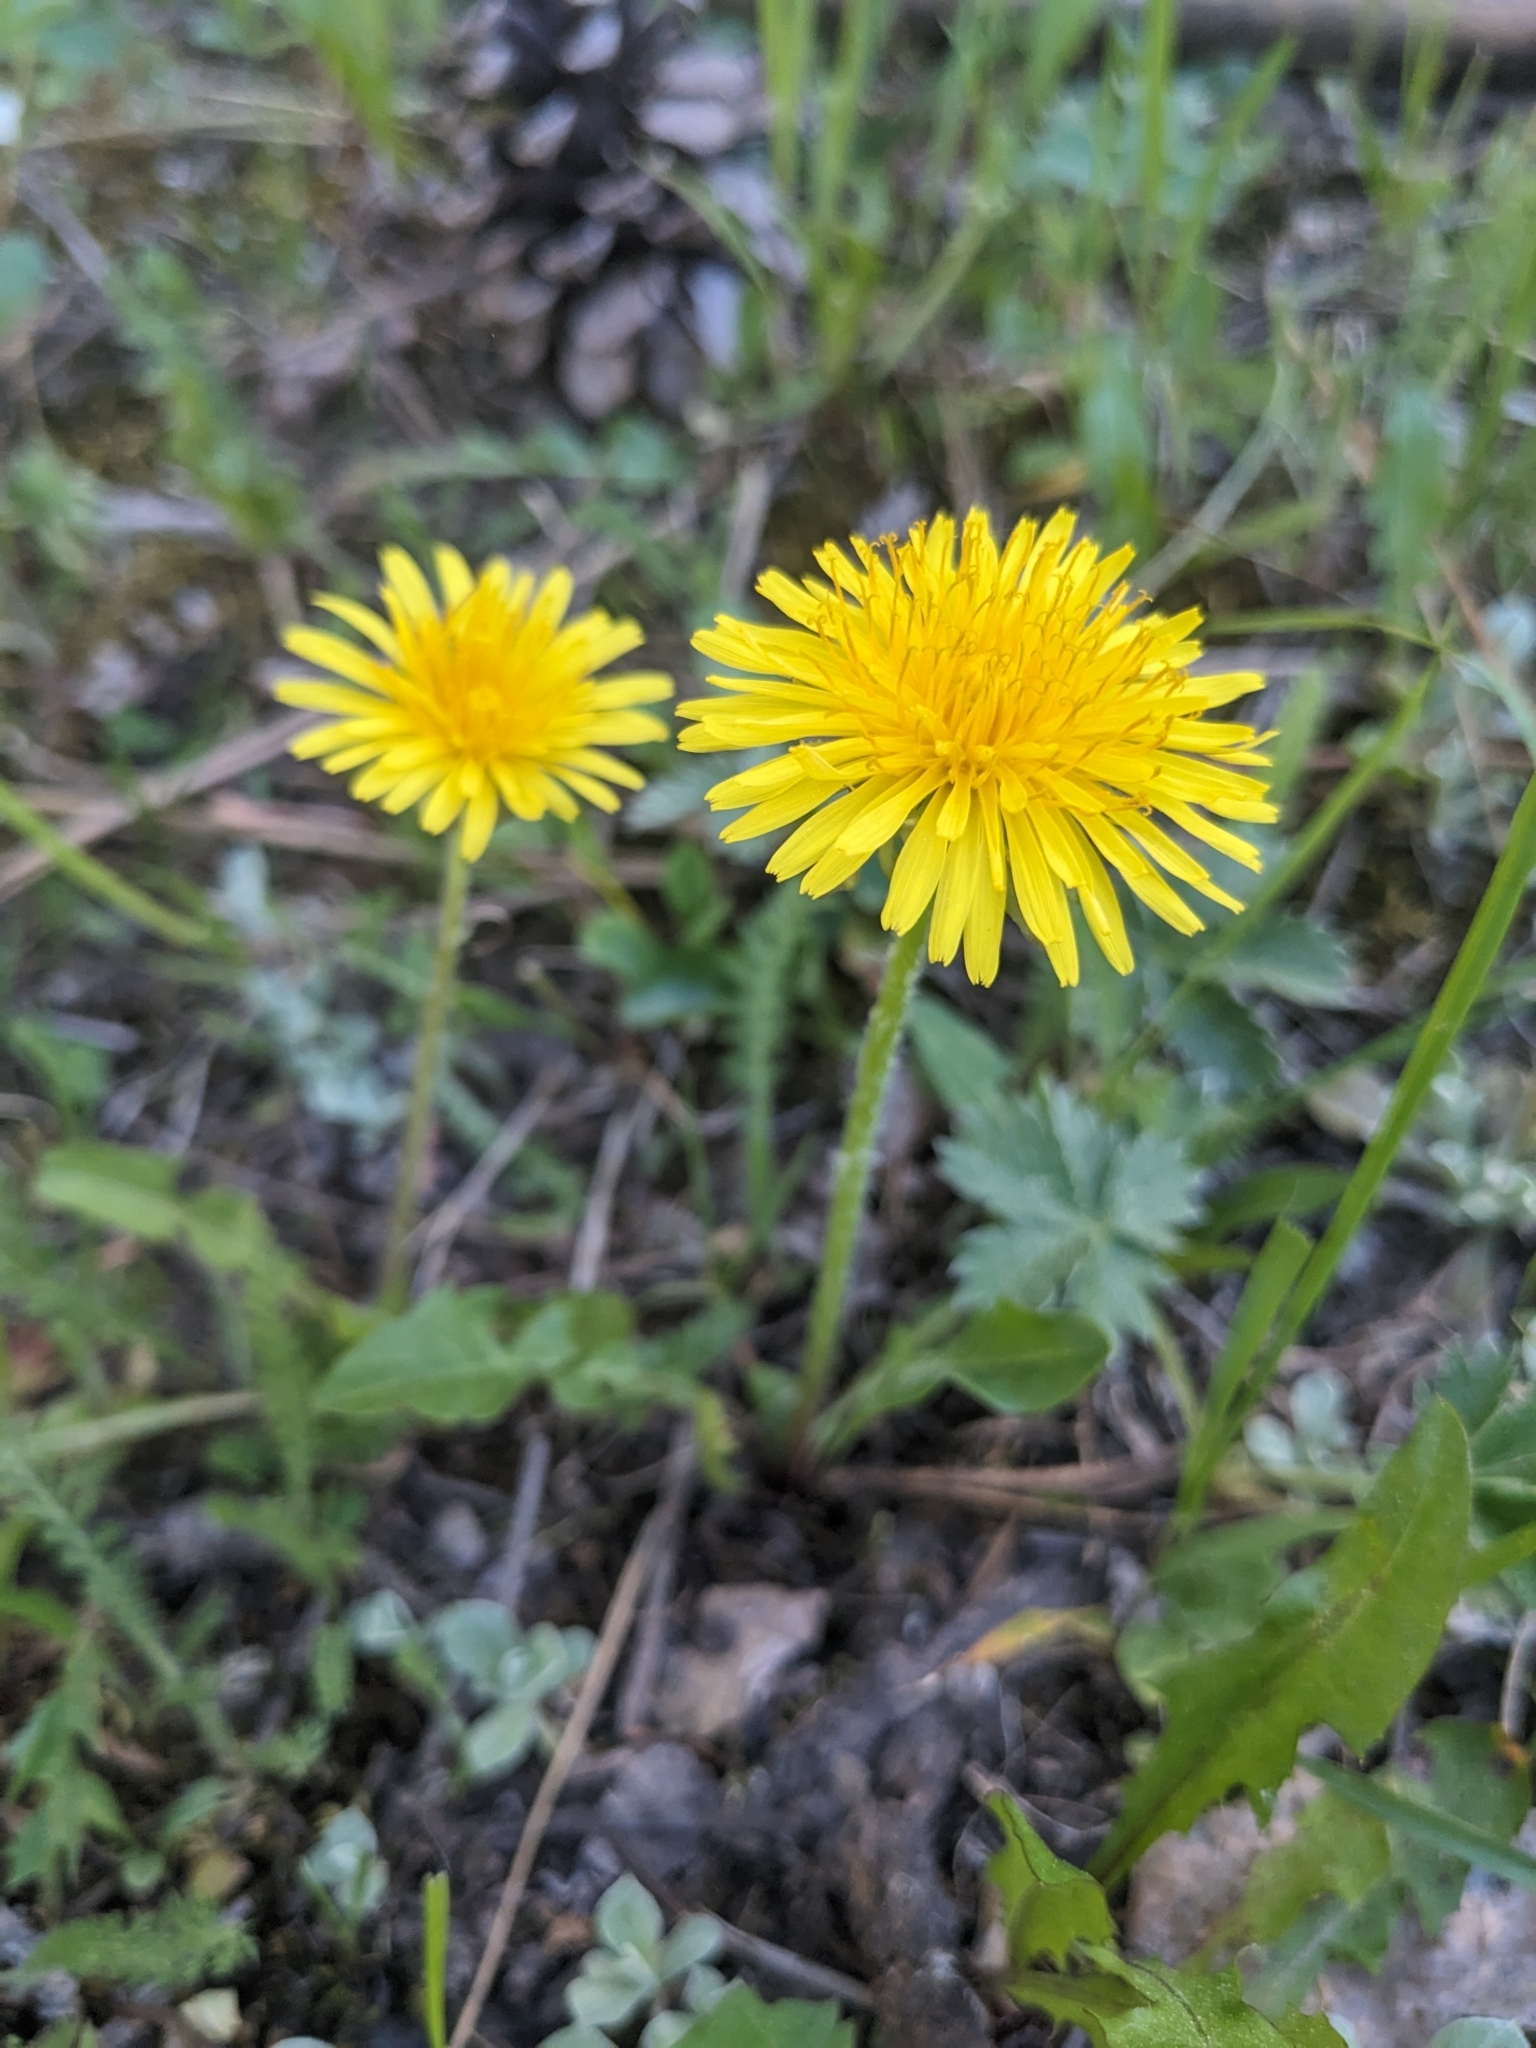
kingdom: Plantae
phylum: Tracheophyta
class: Magnoliopsida
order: Asterales
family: Asteraceae
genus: Taraxacum
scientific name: Taraxacum officinale
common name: Common dandelion
